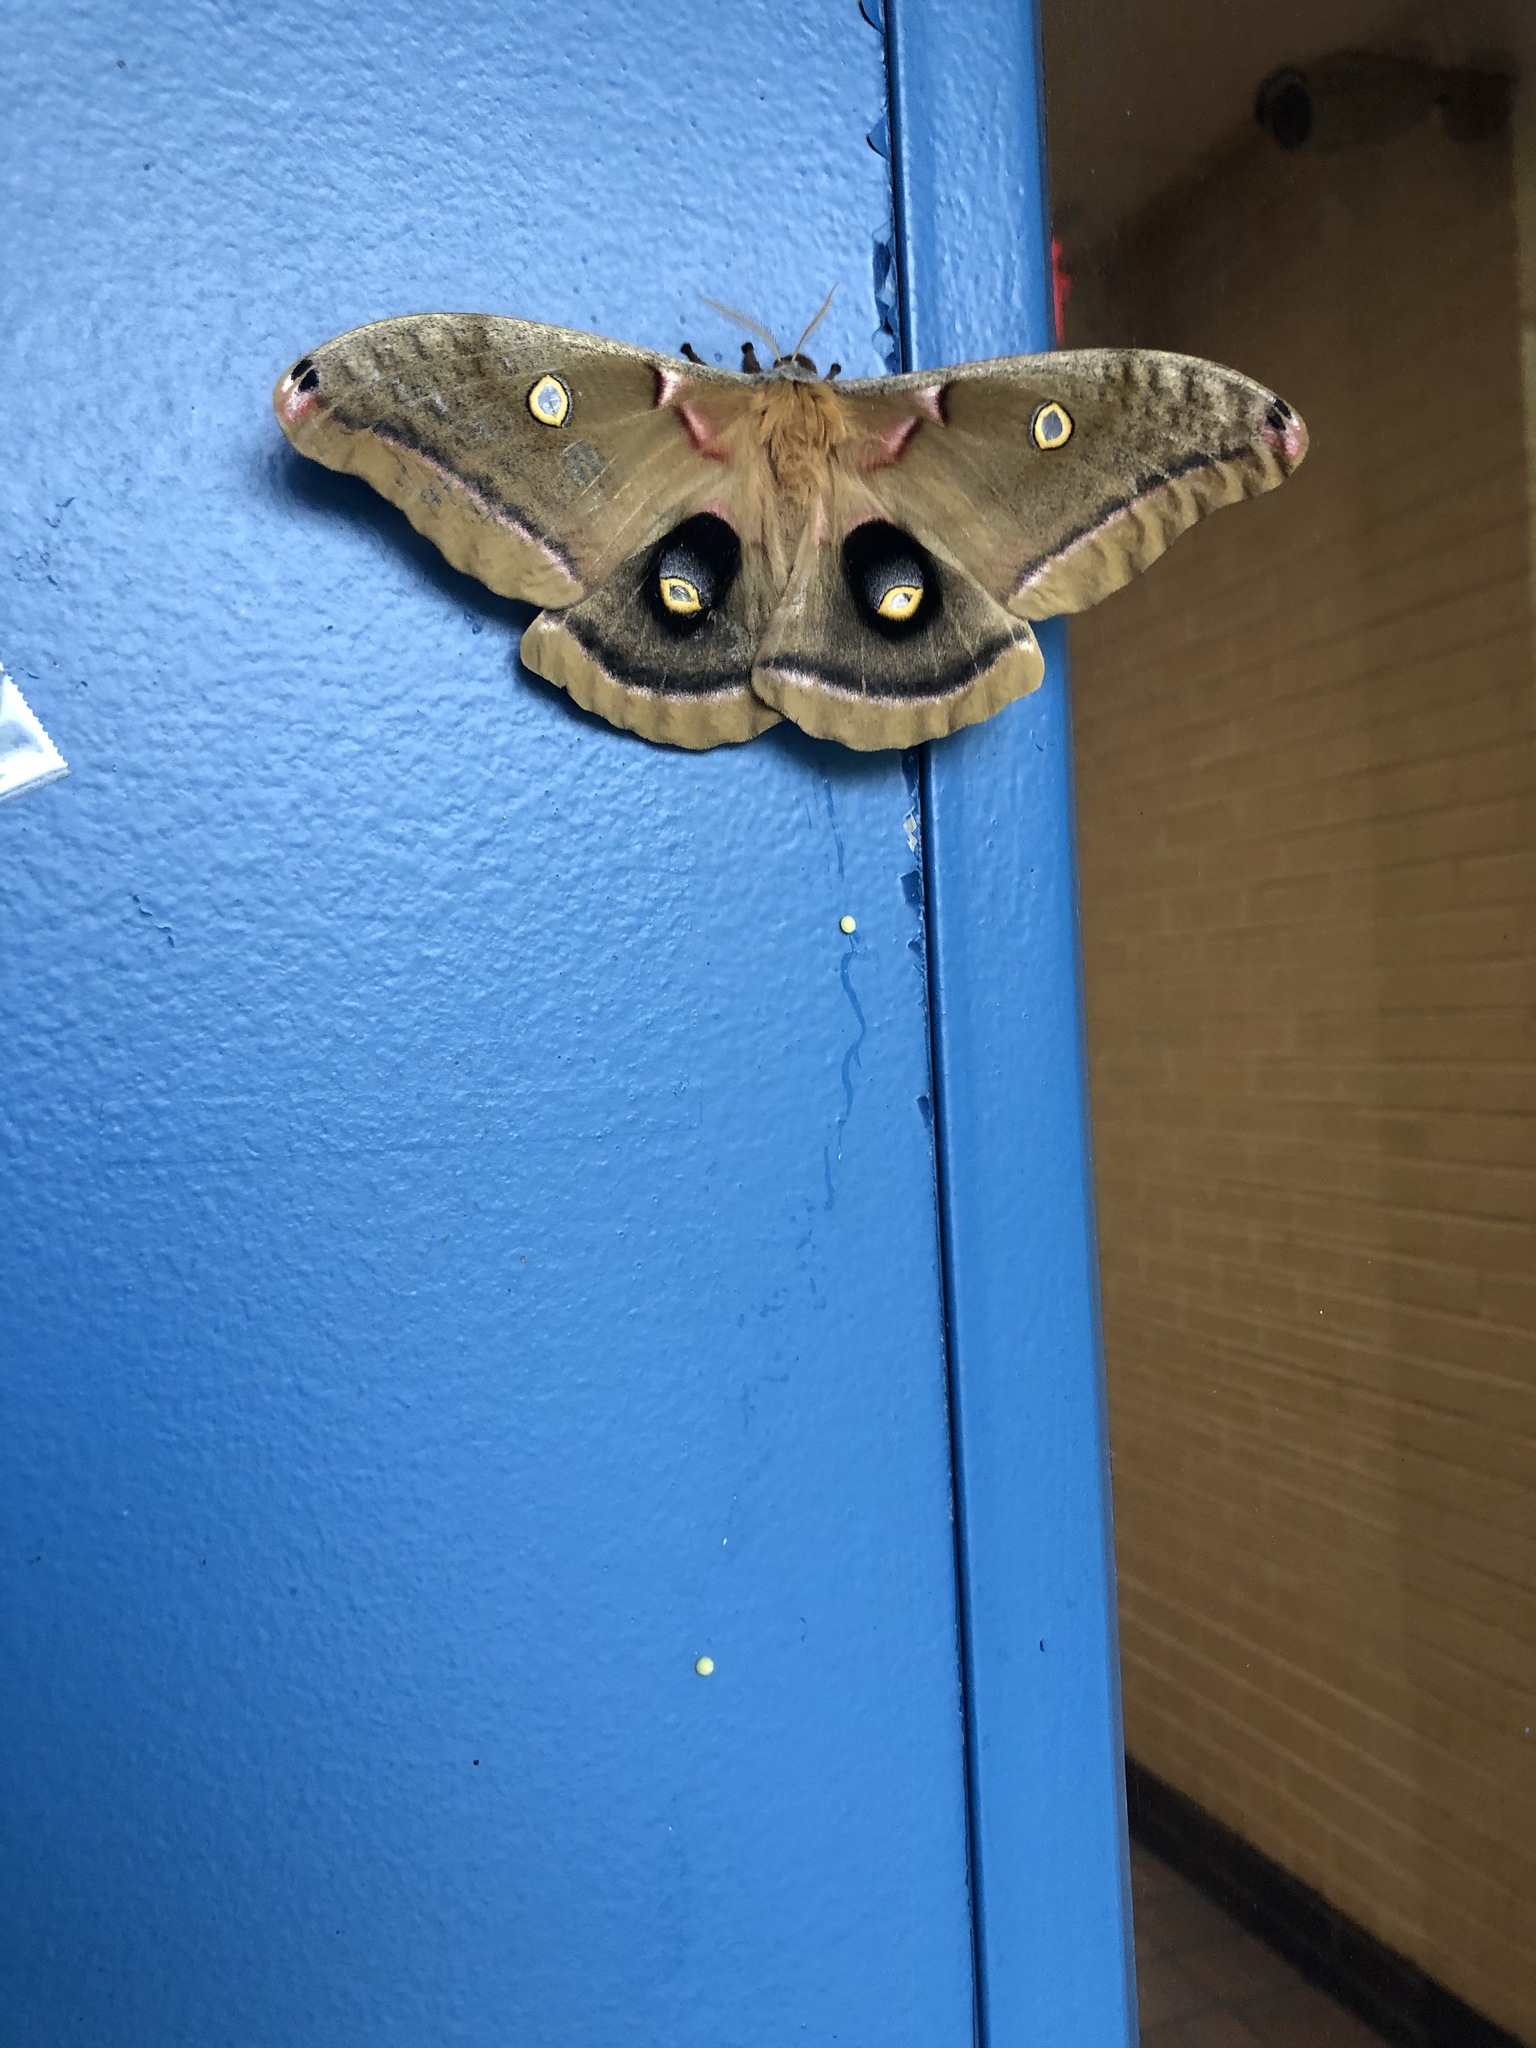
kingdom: Animalia
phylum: Arthropoda
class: Insecta
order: Lepidoptera
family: Saturniidae
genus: Antheraea
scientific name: Antheraea polyphemus
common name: Polyphemus moth
